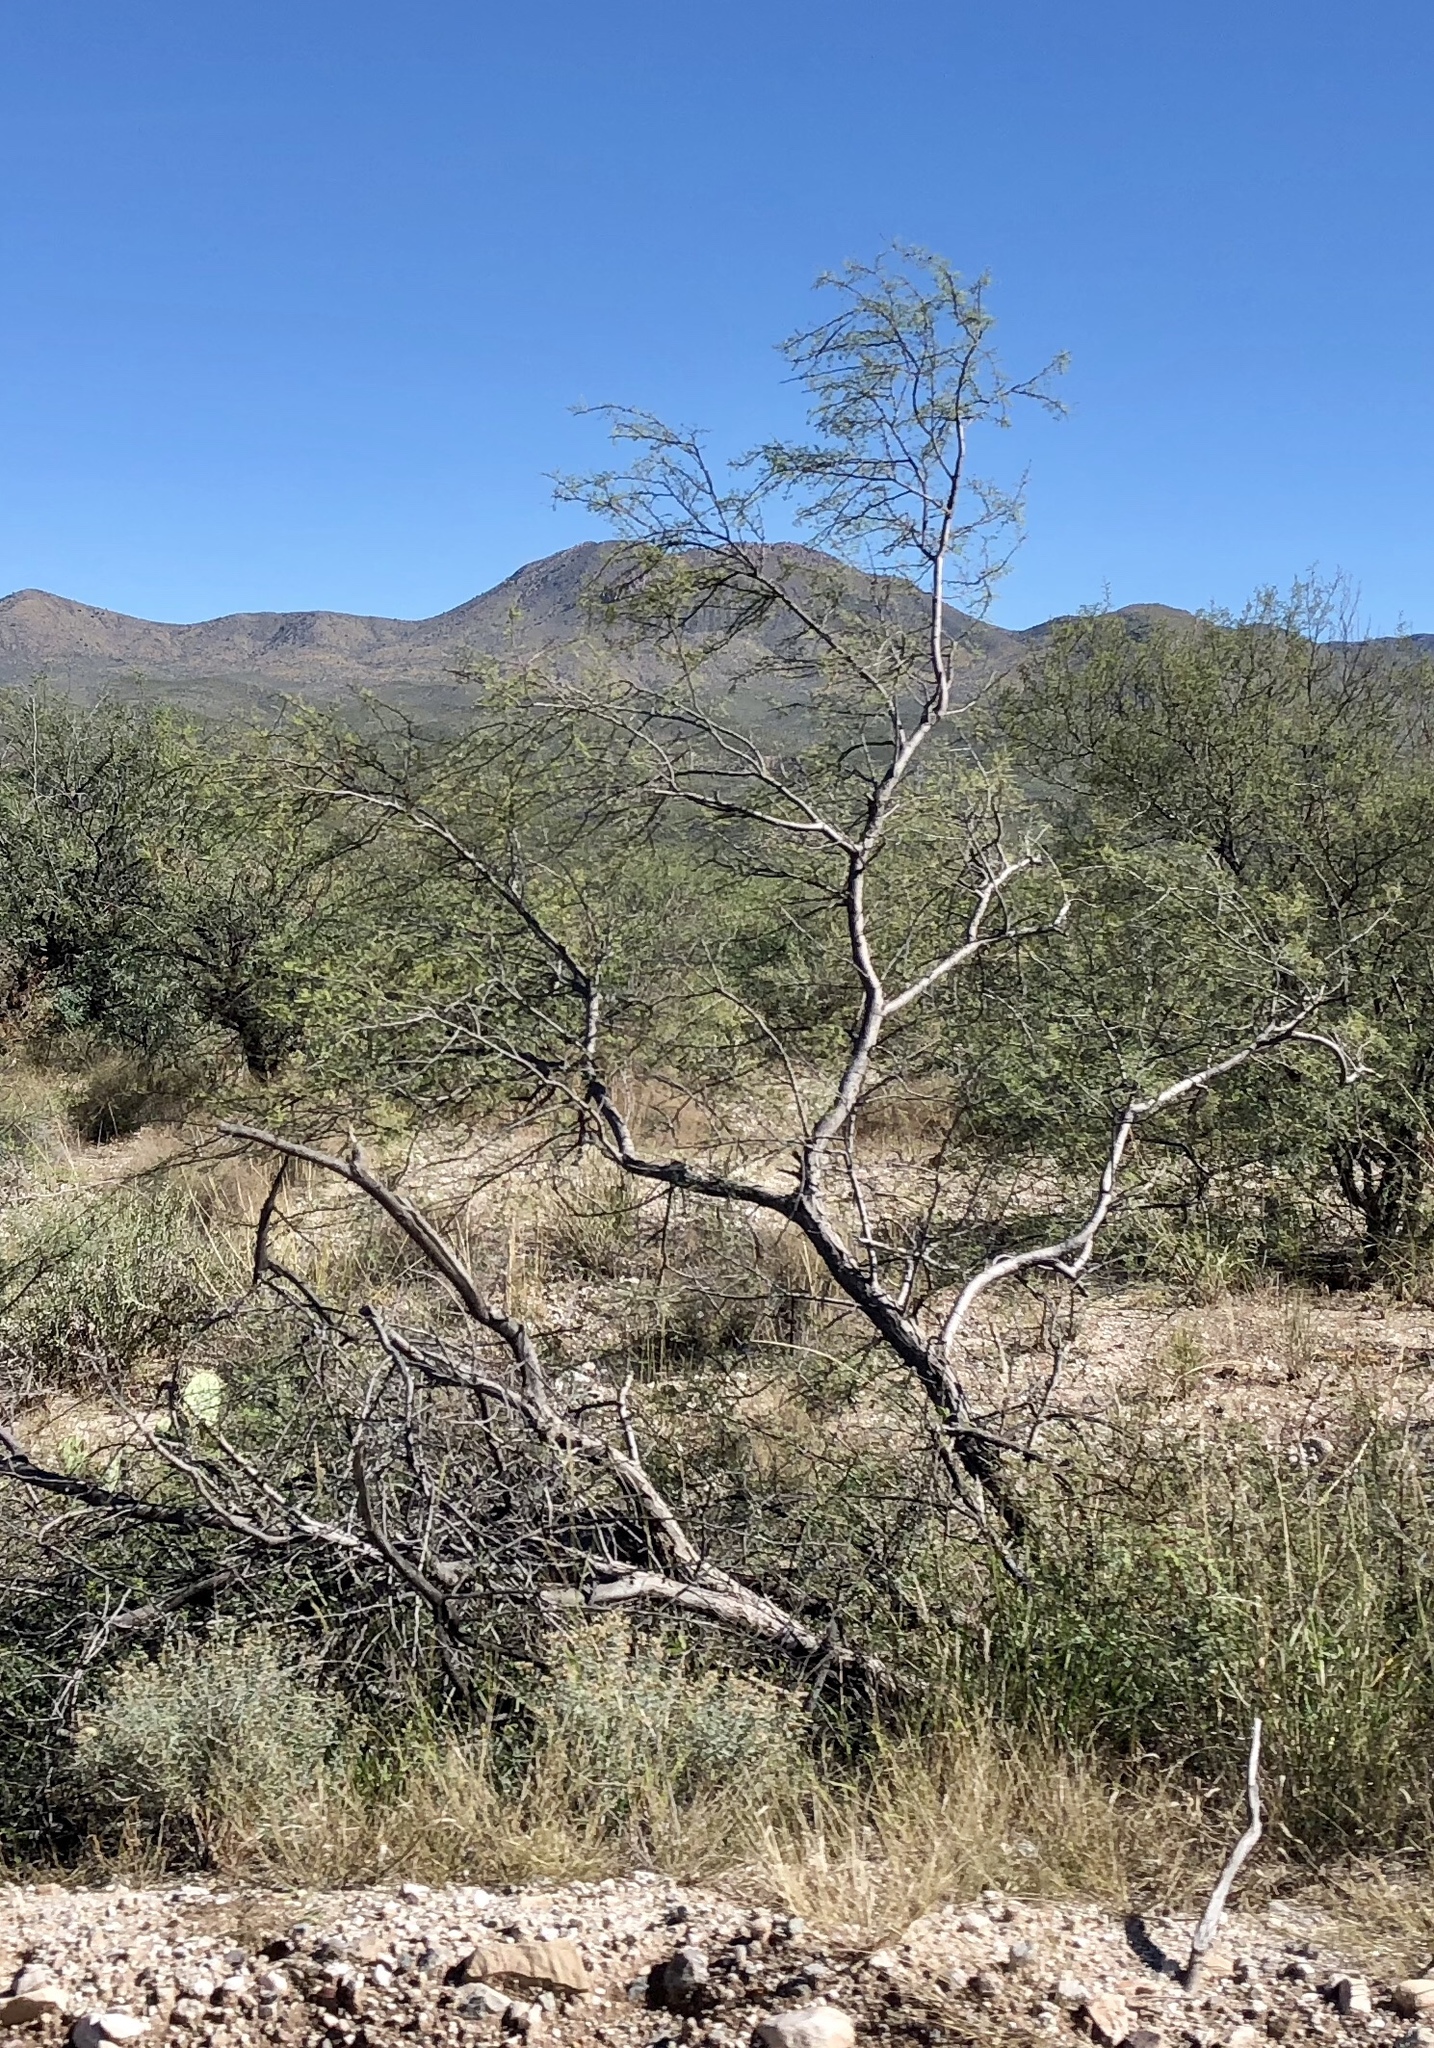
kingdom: Plantae
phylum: Tracheophyta
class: Magnoliopsida
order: Fabales
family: Fabaceae
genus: Vachellia
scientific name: Vachellia constricta
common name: Mescat acacia
